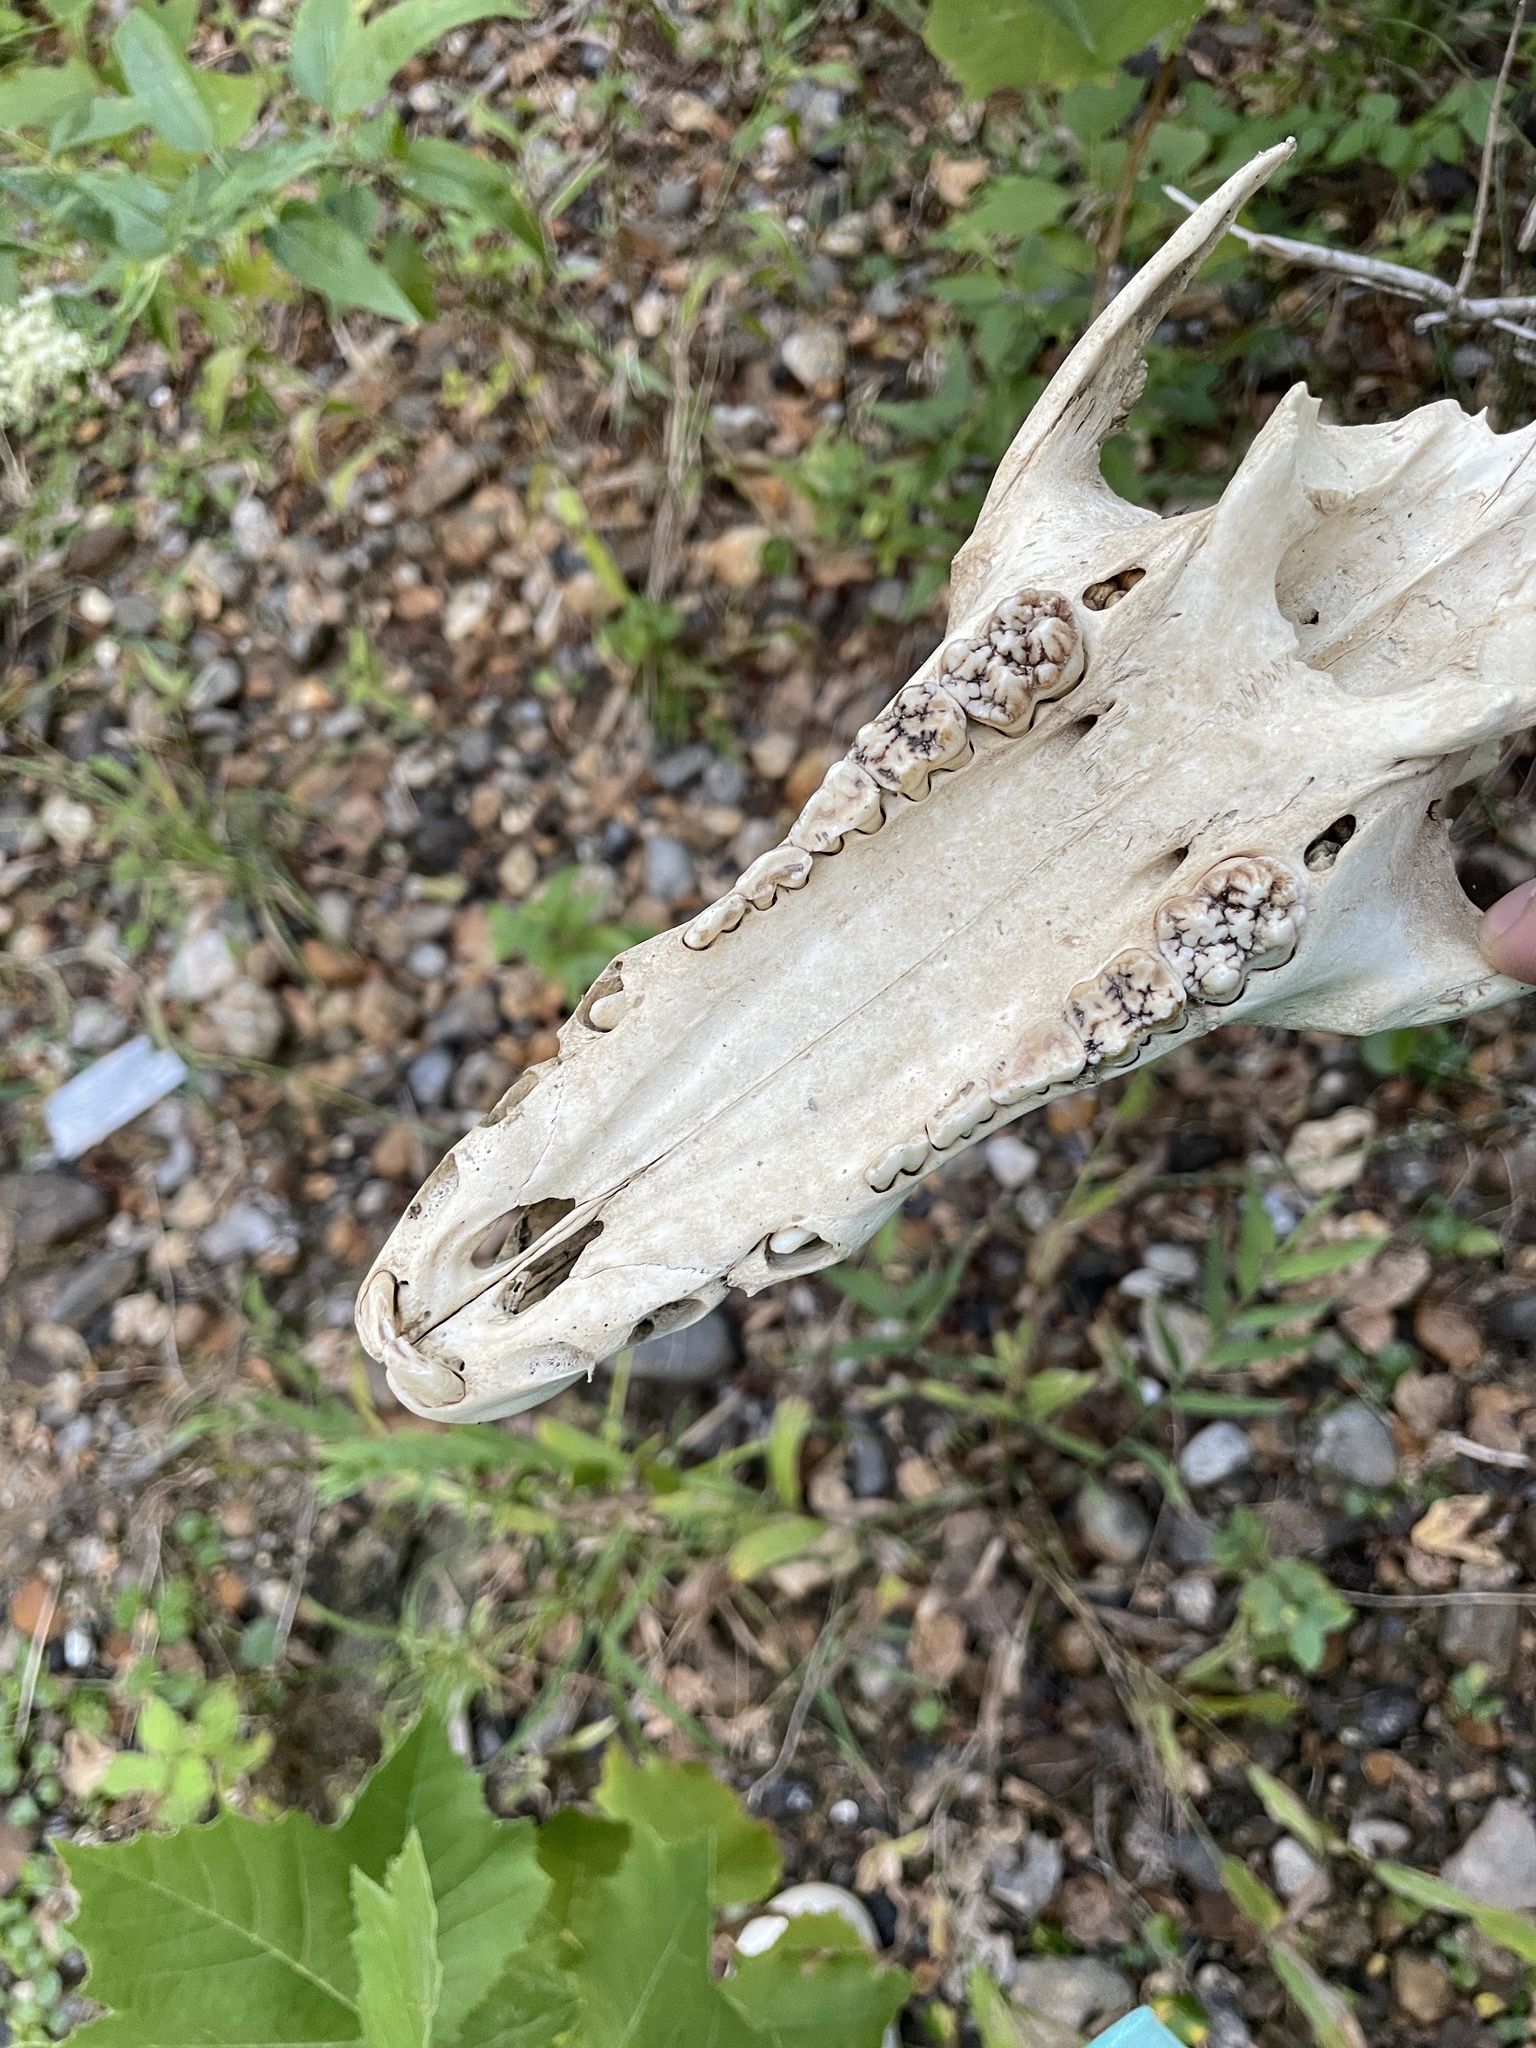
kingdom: Animalia
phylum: Chordata
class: Mammalia
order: Artiodactyla
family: Suidae
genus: Sus
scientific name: Sus scrofa
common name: Wild boar
